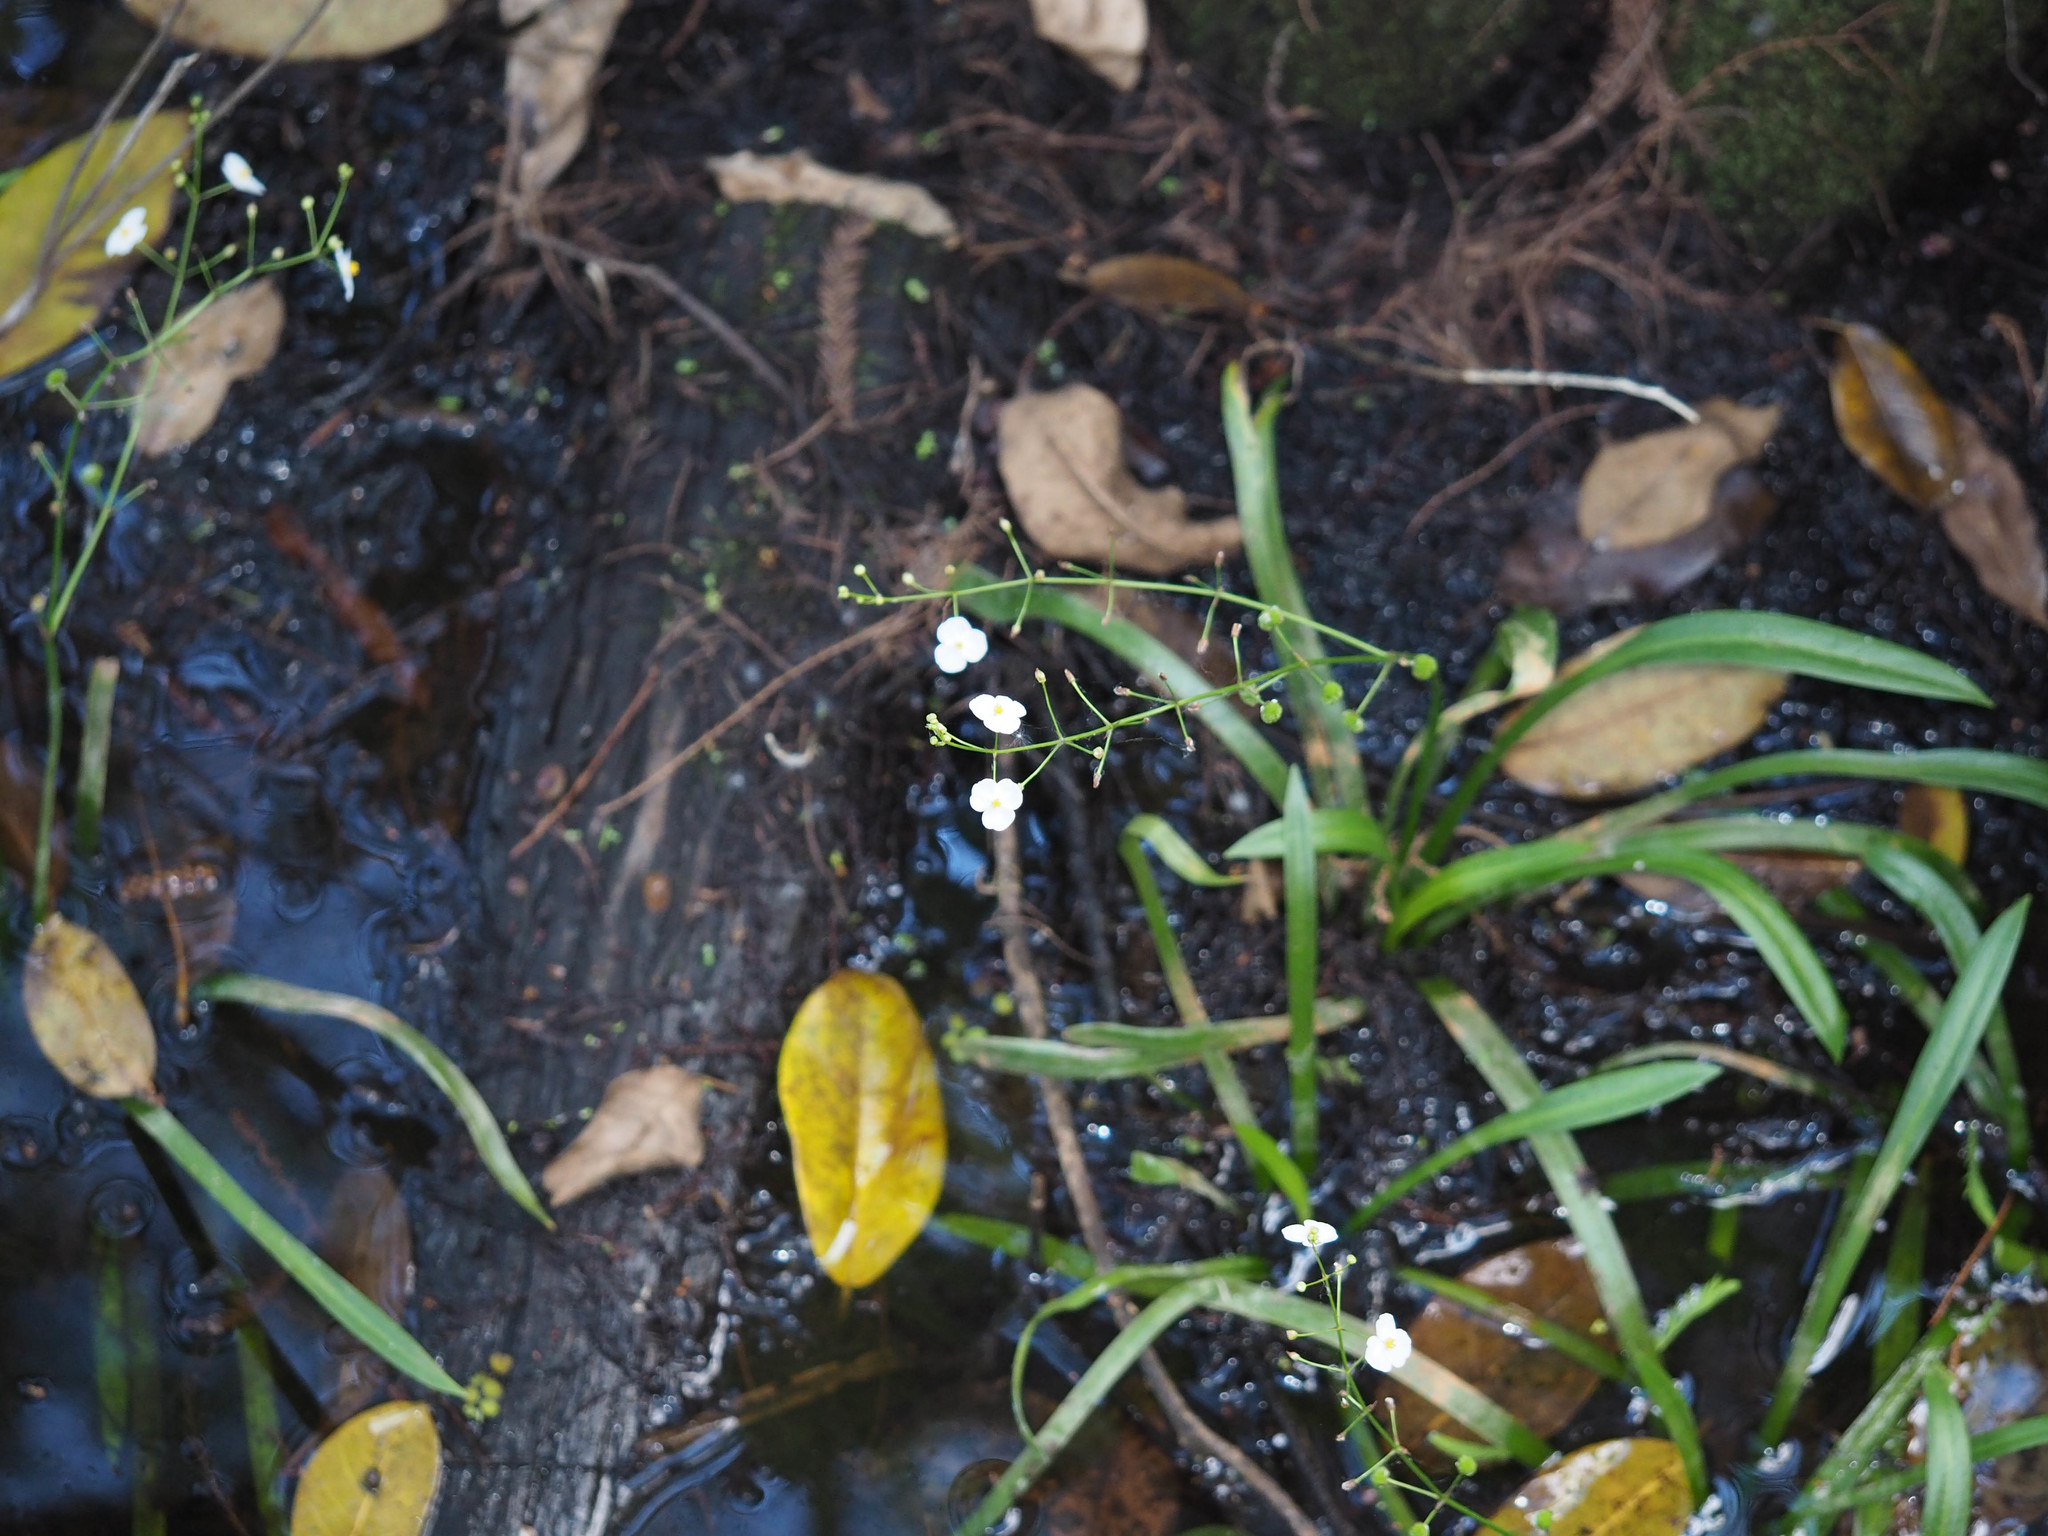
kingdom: Plantae
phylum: Tracheophyta
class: Liliopsida
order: Alismatales
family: Alismataceae
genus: Sagittaria
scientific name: Sagittaria chapmanii
